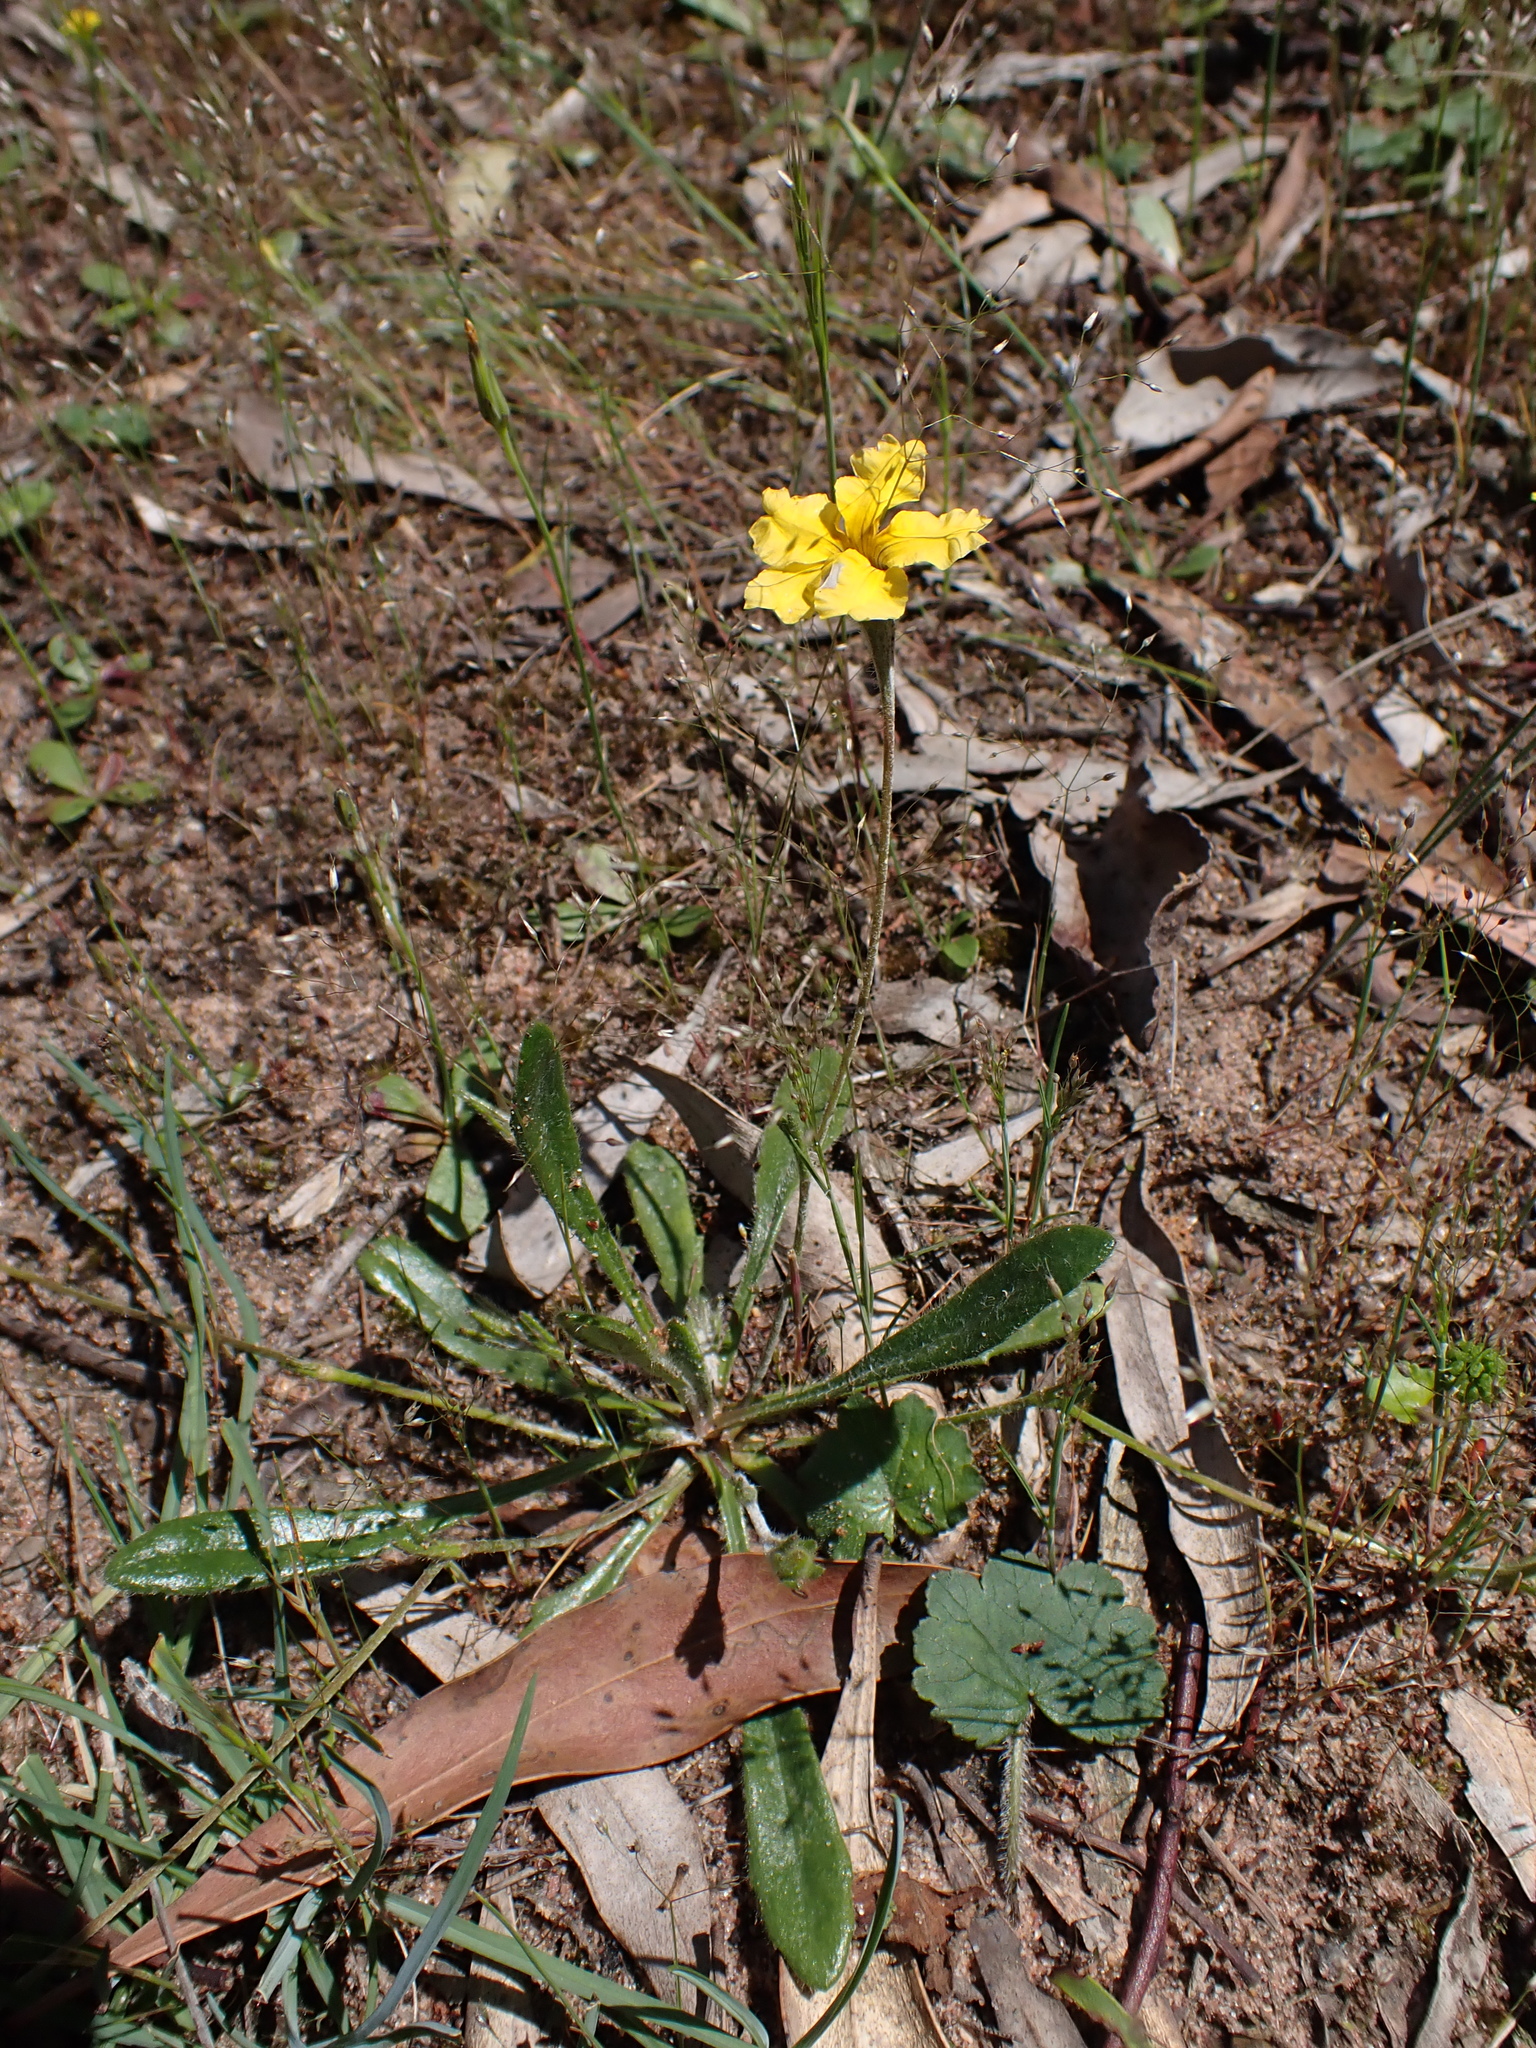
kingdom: Plantae
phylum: Tracheophyta
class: Magnoliopsida
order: Asterales
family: Goodeniaceae
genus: Goodenia
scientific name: Goodenia geniculata
